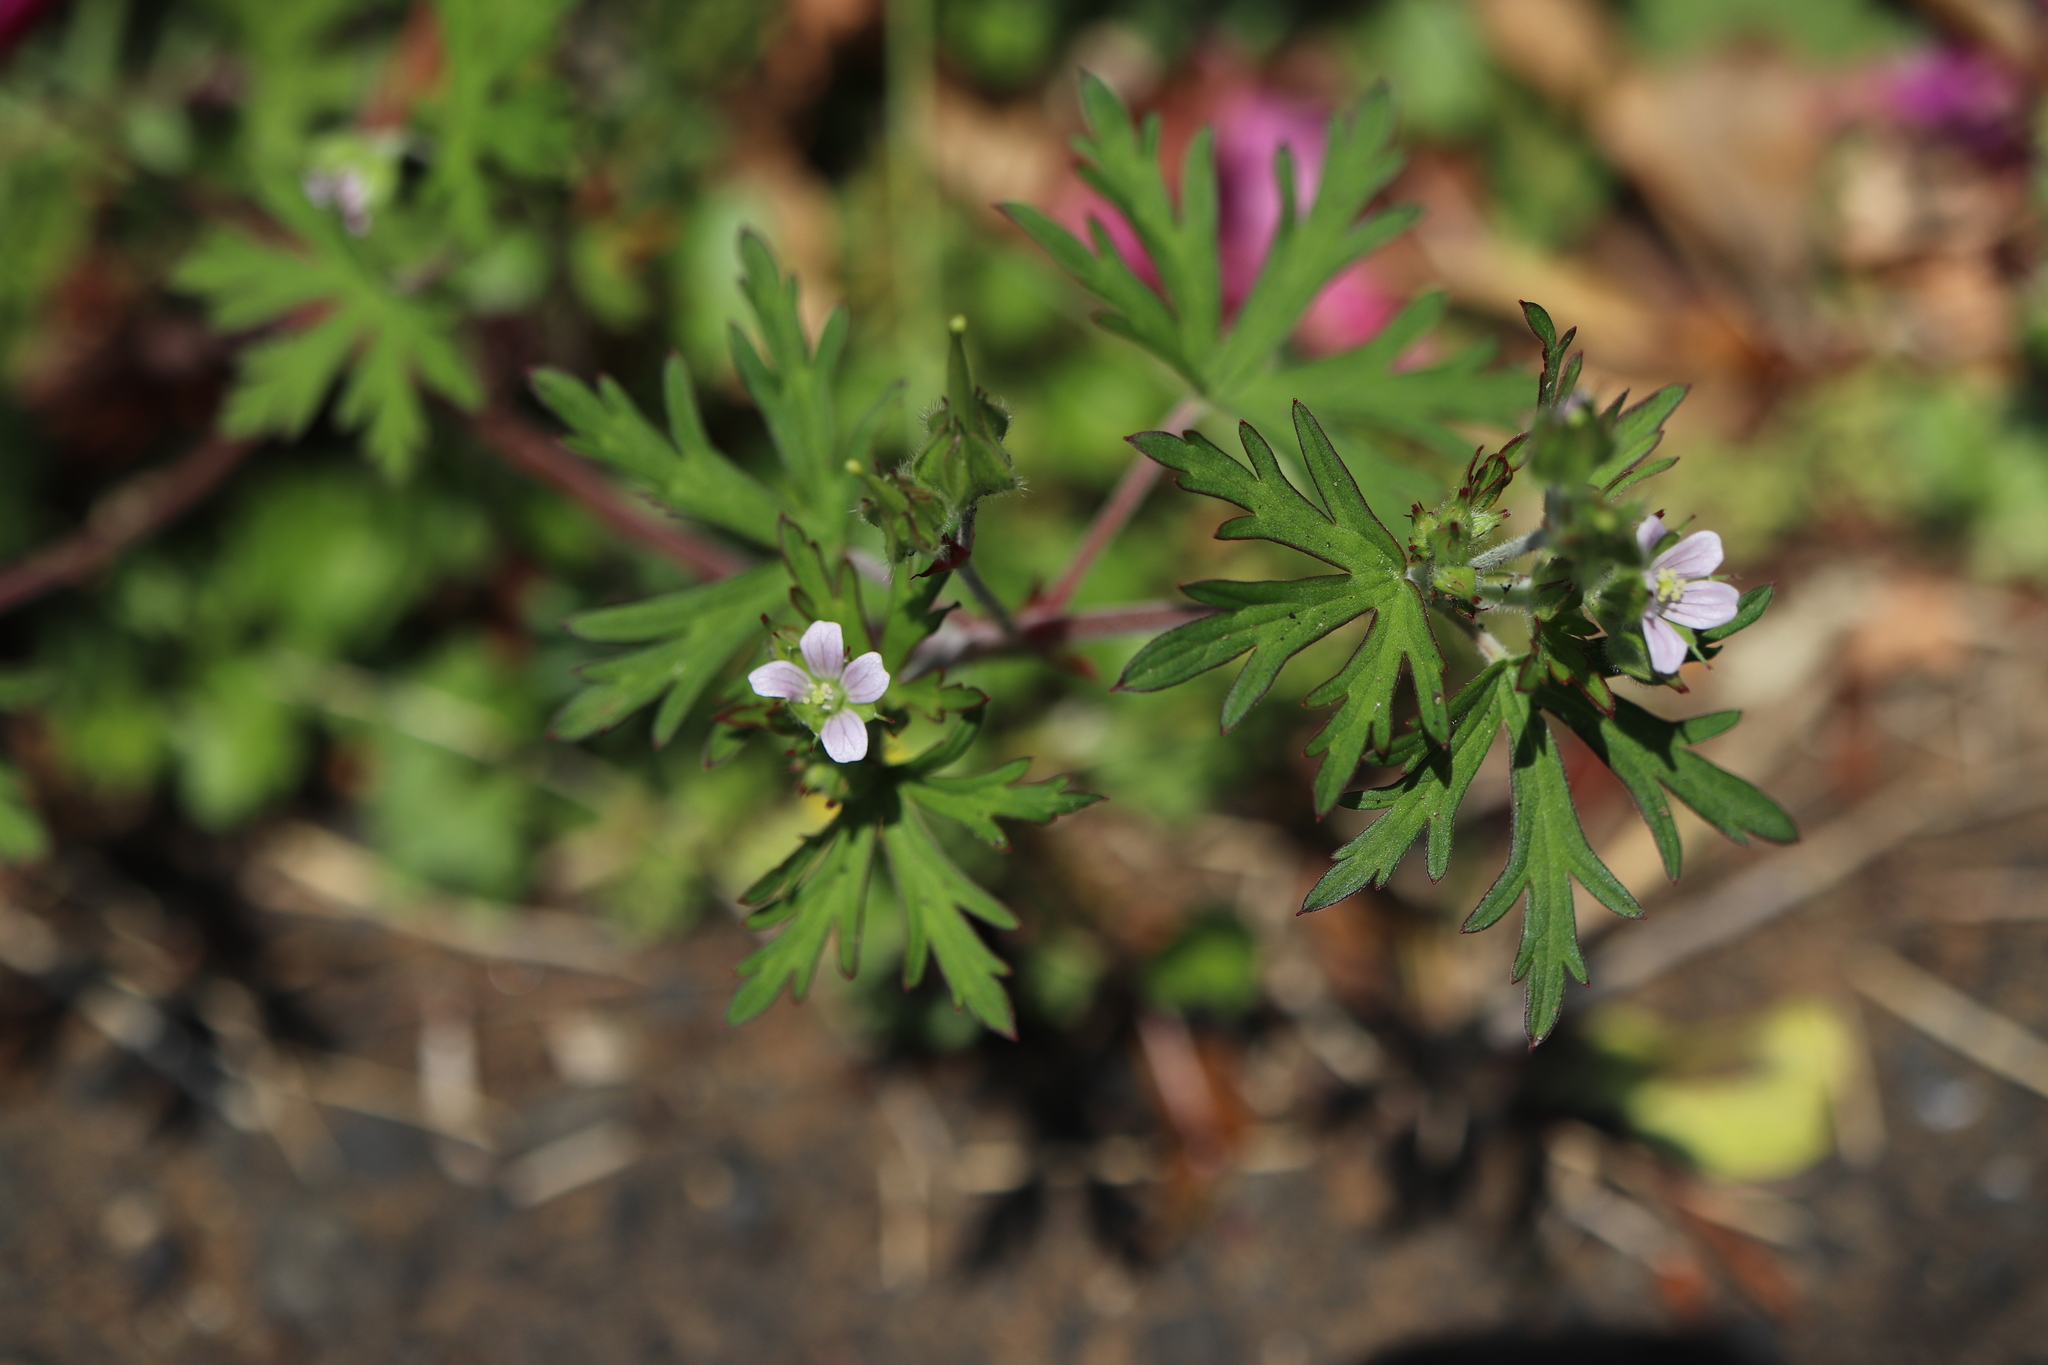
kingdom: Plantae
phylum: Tracheophyta
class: Magnoliopsida
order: Geraniales
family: Geraniaceae
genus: Geranium
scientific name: Geranium carolinianum
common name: Carolina crane's-bill
